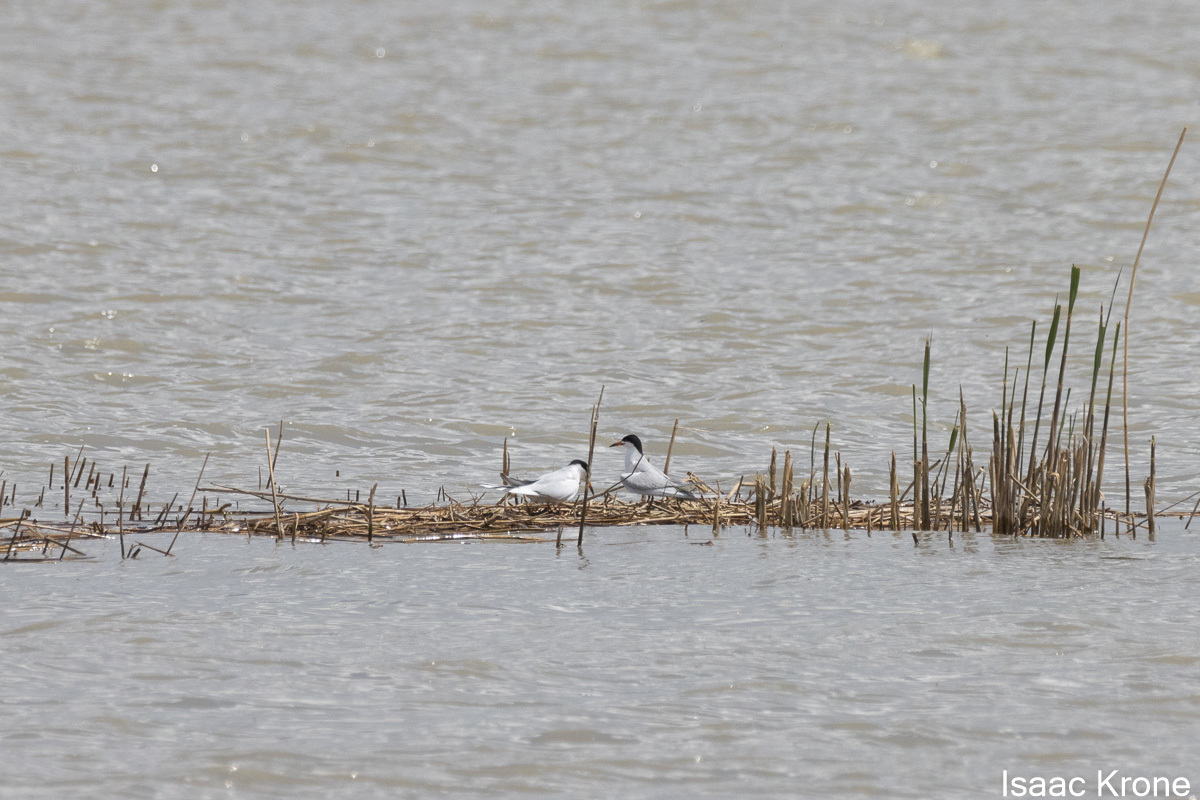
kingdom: Animalia
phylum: Chordata
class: Aves
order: Charadriiformes
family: Laridae
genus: Sterna
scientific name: Sterna forsteri
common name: Forster's tern
